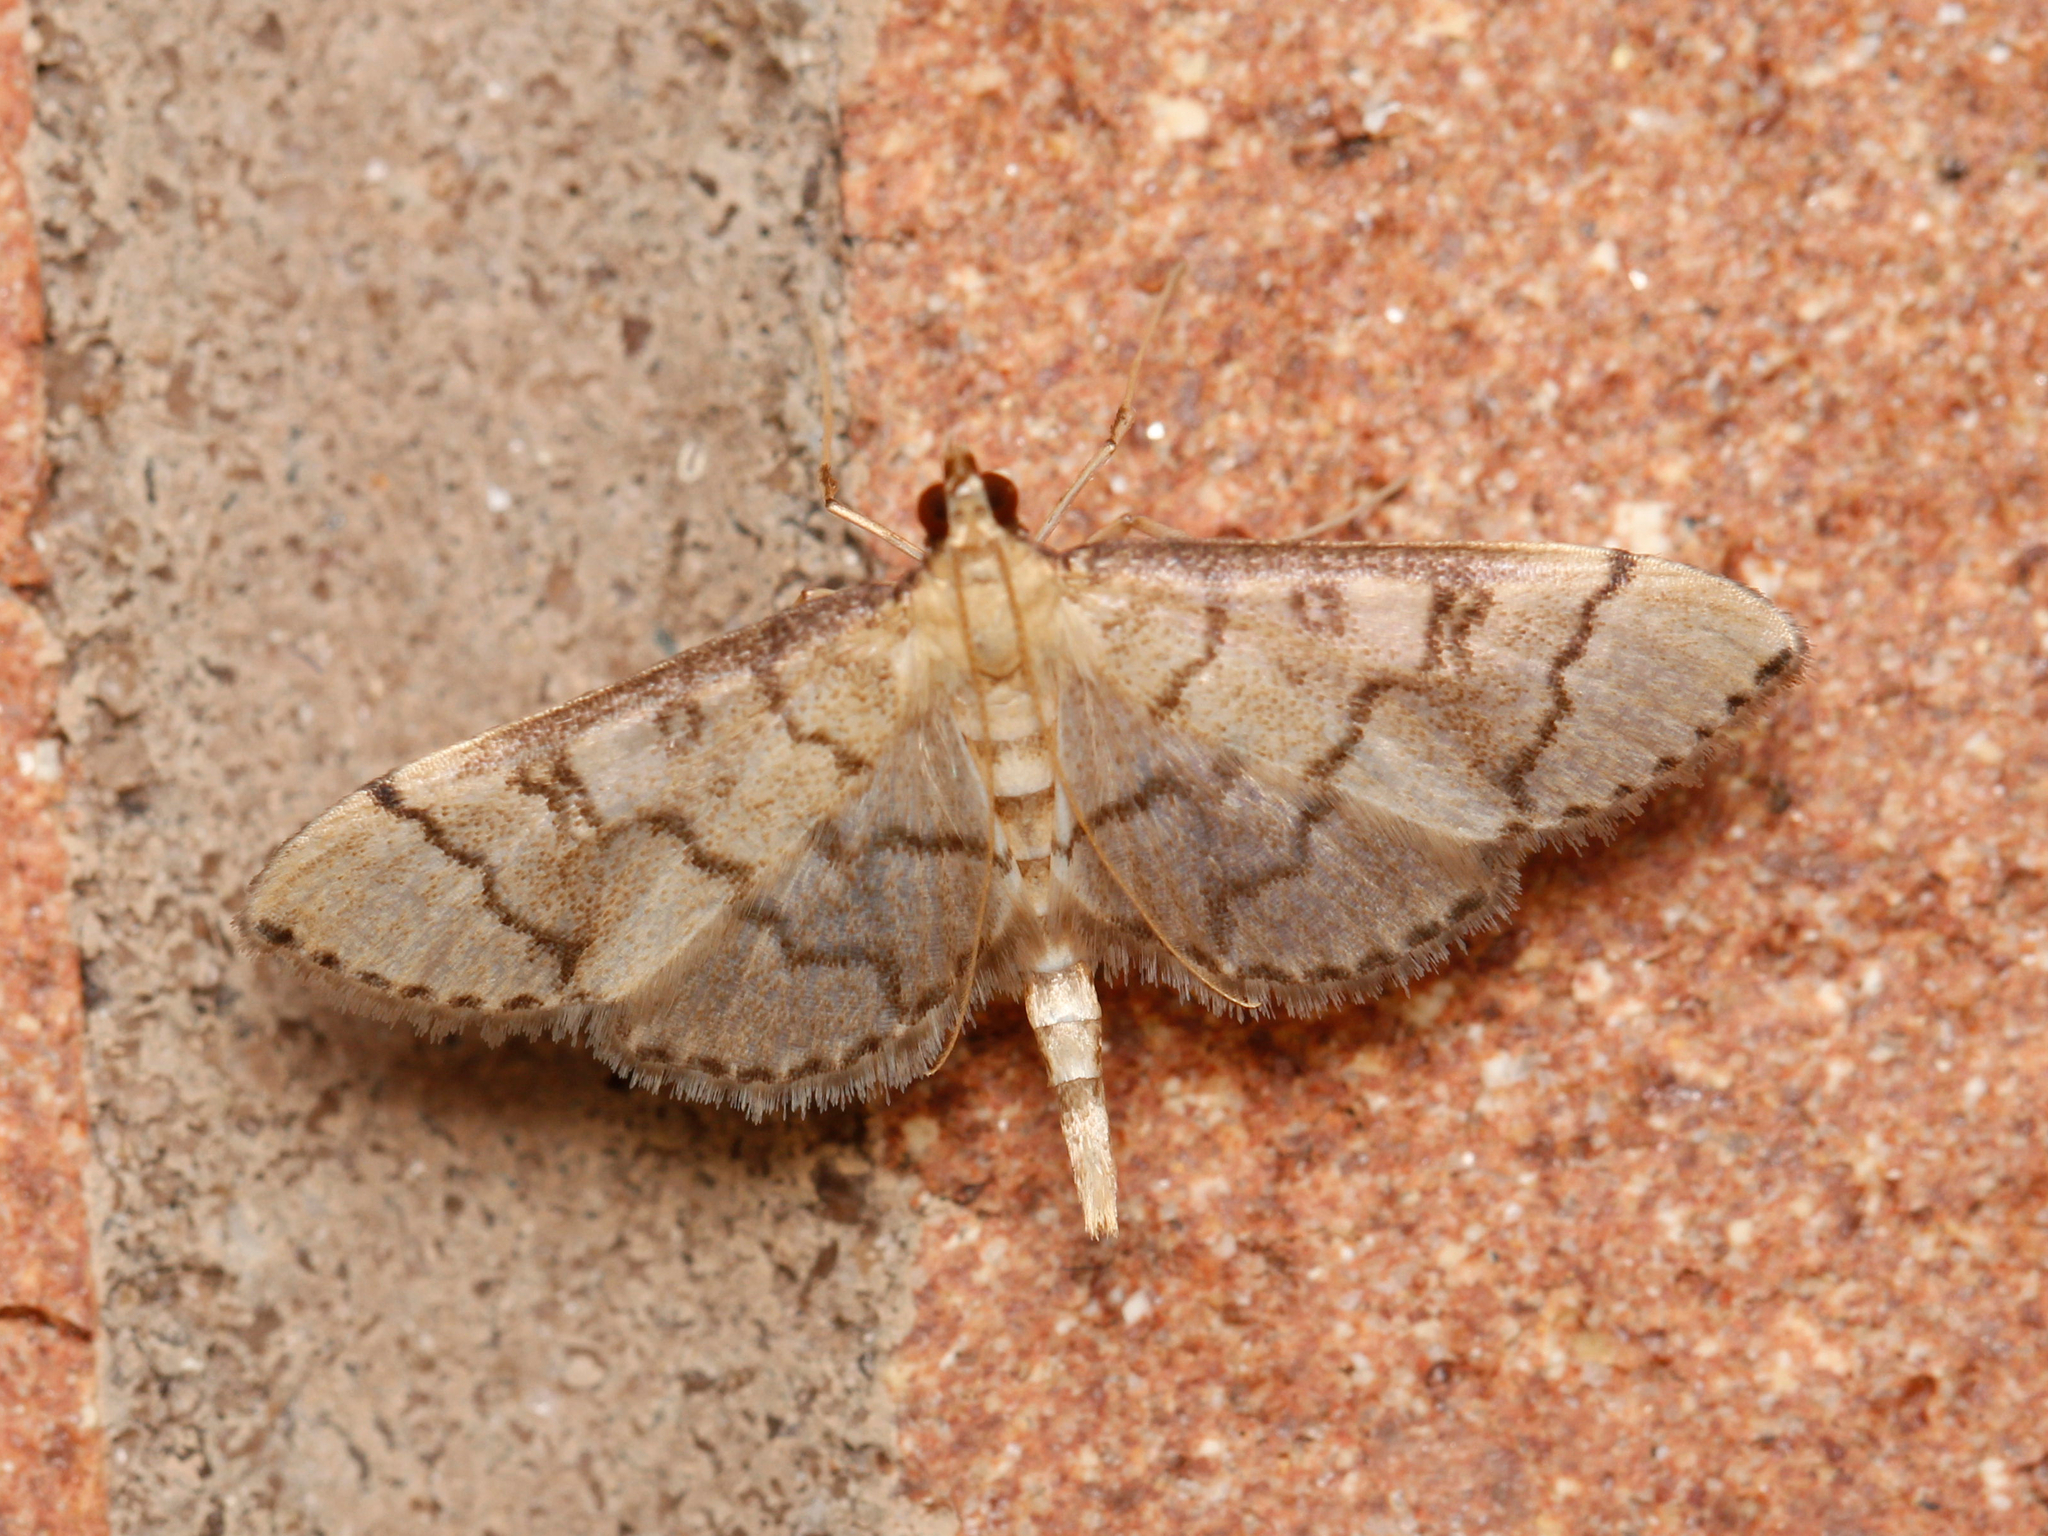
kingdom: Animalia
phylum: Arthropoda
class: Insecta
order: Lepidoptera
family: Crambidae
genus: Lamprosema
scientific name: Lamprosema Blepharomastix ranalis
